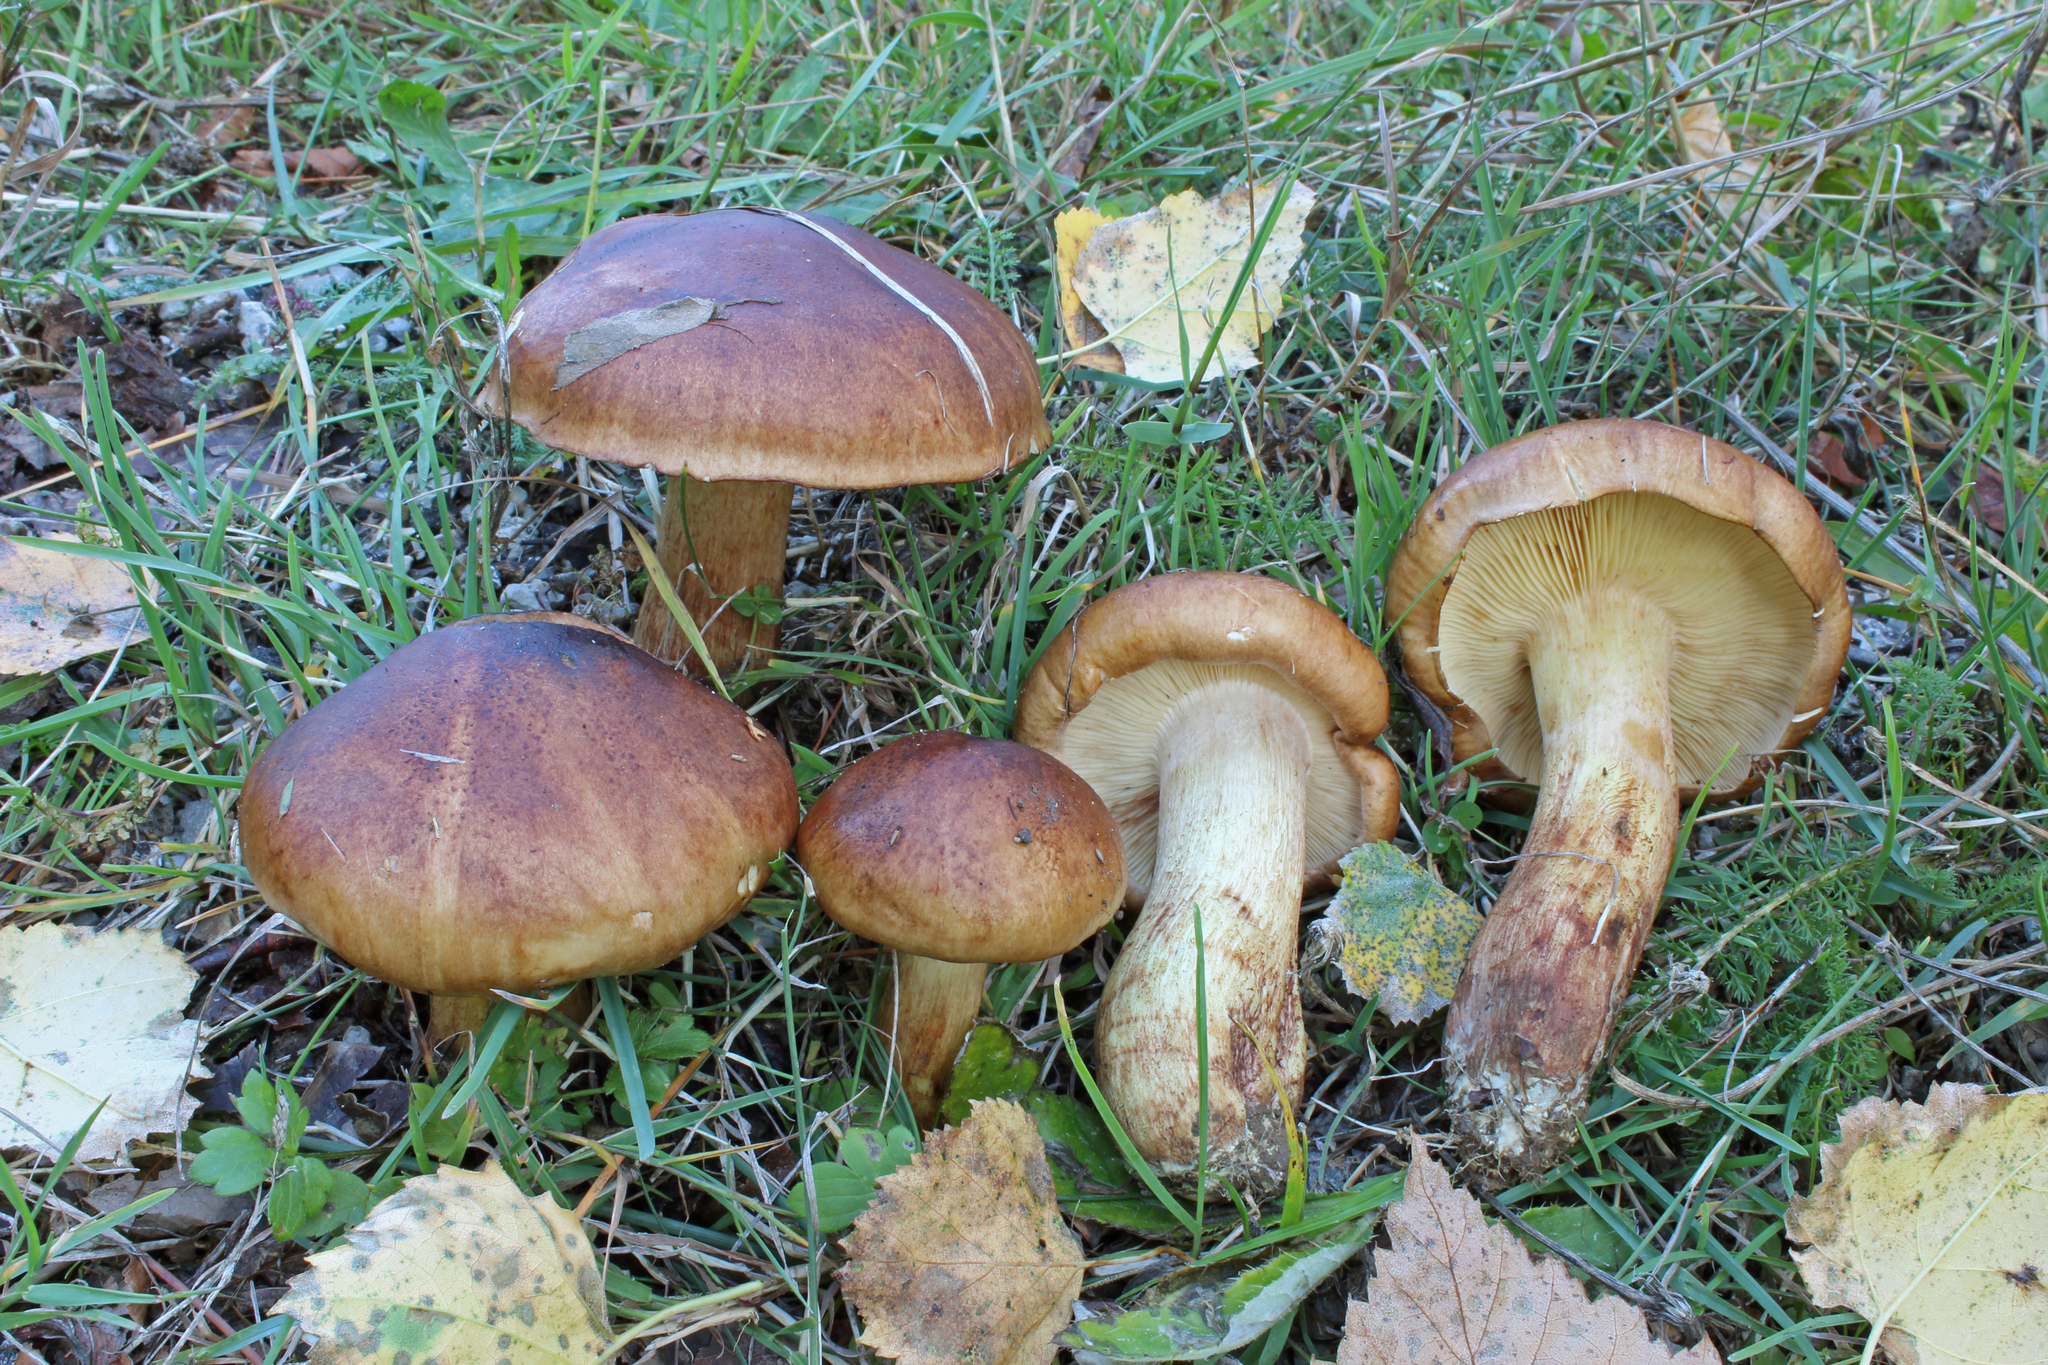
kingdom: Fungi
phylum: Basidiomycota
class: Agaricomycetes
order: Agaricales
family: Tricholomataceae
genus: Tricholoma
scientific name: Tricholoma fulvum
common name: Birch knight
